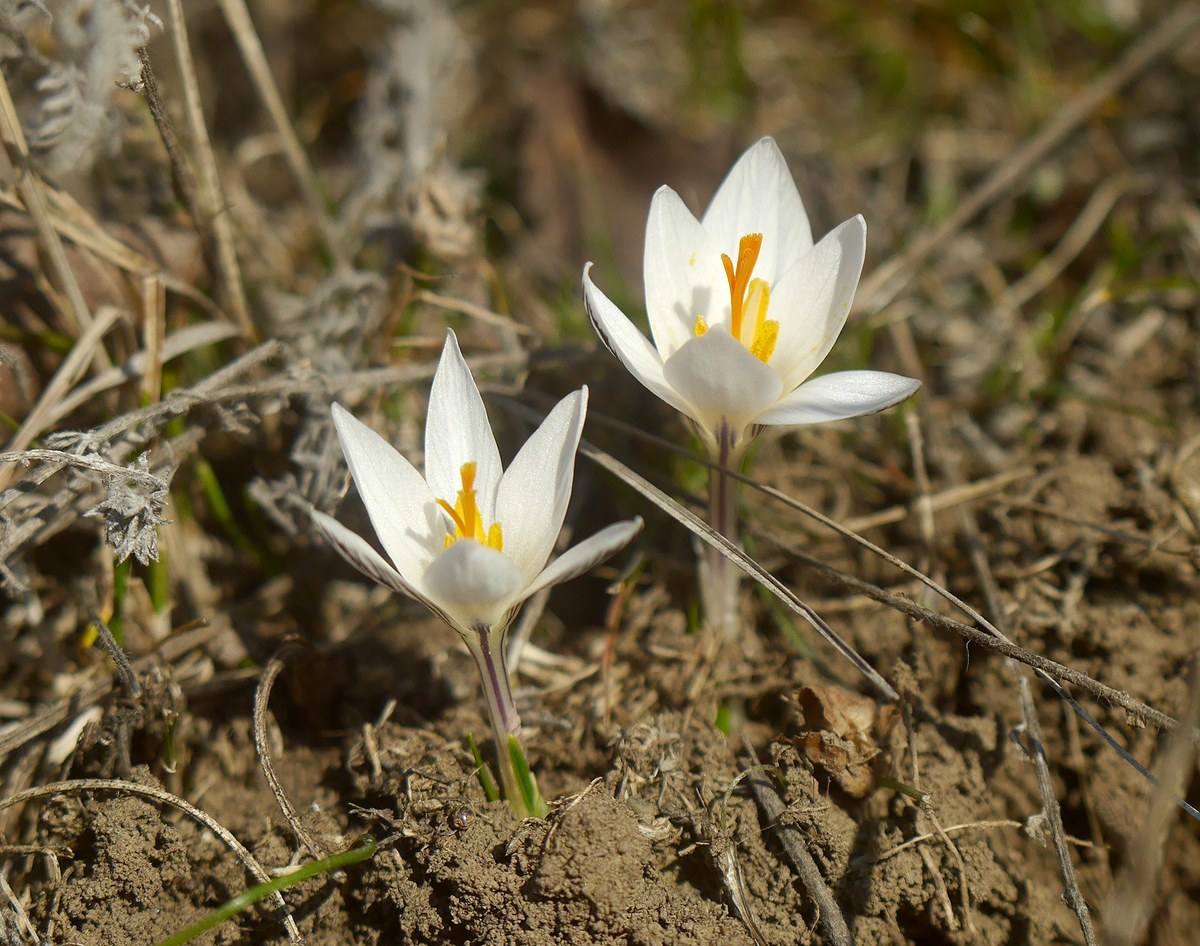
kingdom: Plantae
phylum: Tracheophyta
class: Liliopsida
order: Asparagales
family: Iridaceae
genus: Crocus
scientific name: Crocus reticulatus
